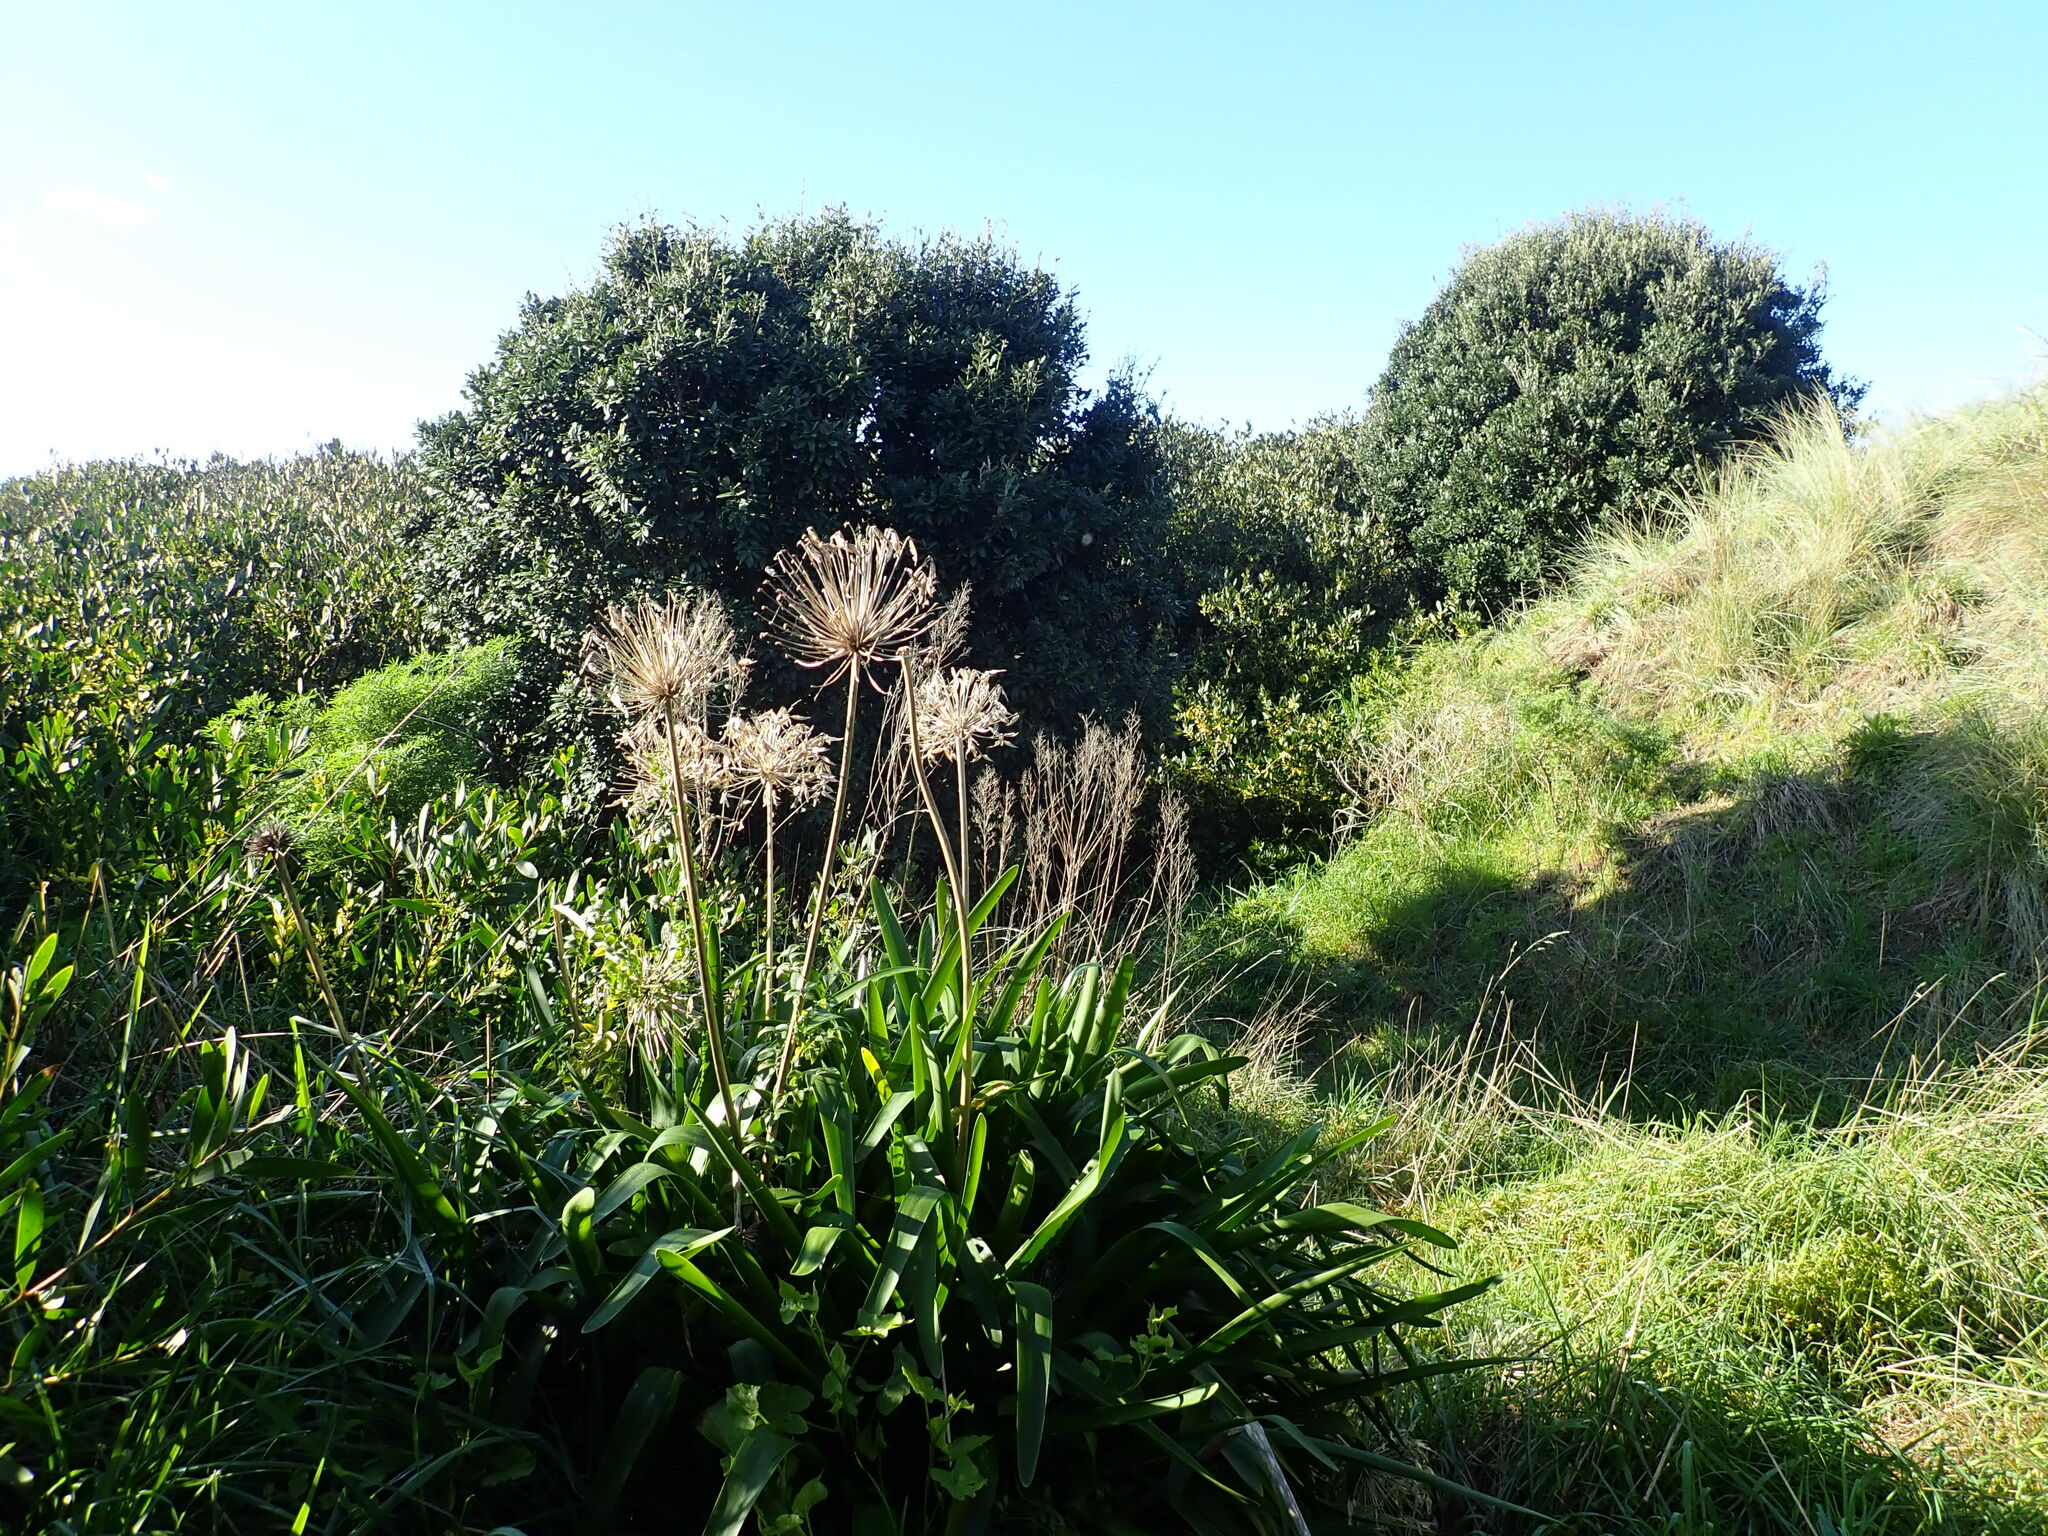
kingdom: Plantae
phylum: Tracheophyta
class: Liliopsida
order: Asparagales
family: Amaryllidaceae
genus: Agapanthus
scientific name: Agapanthus praecox
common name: African-lily
